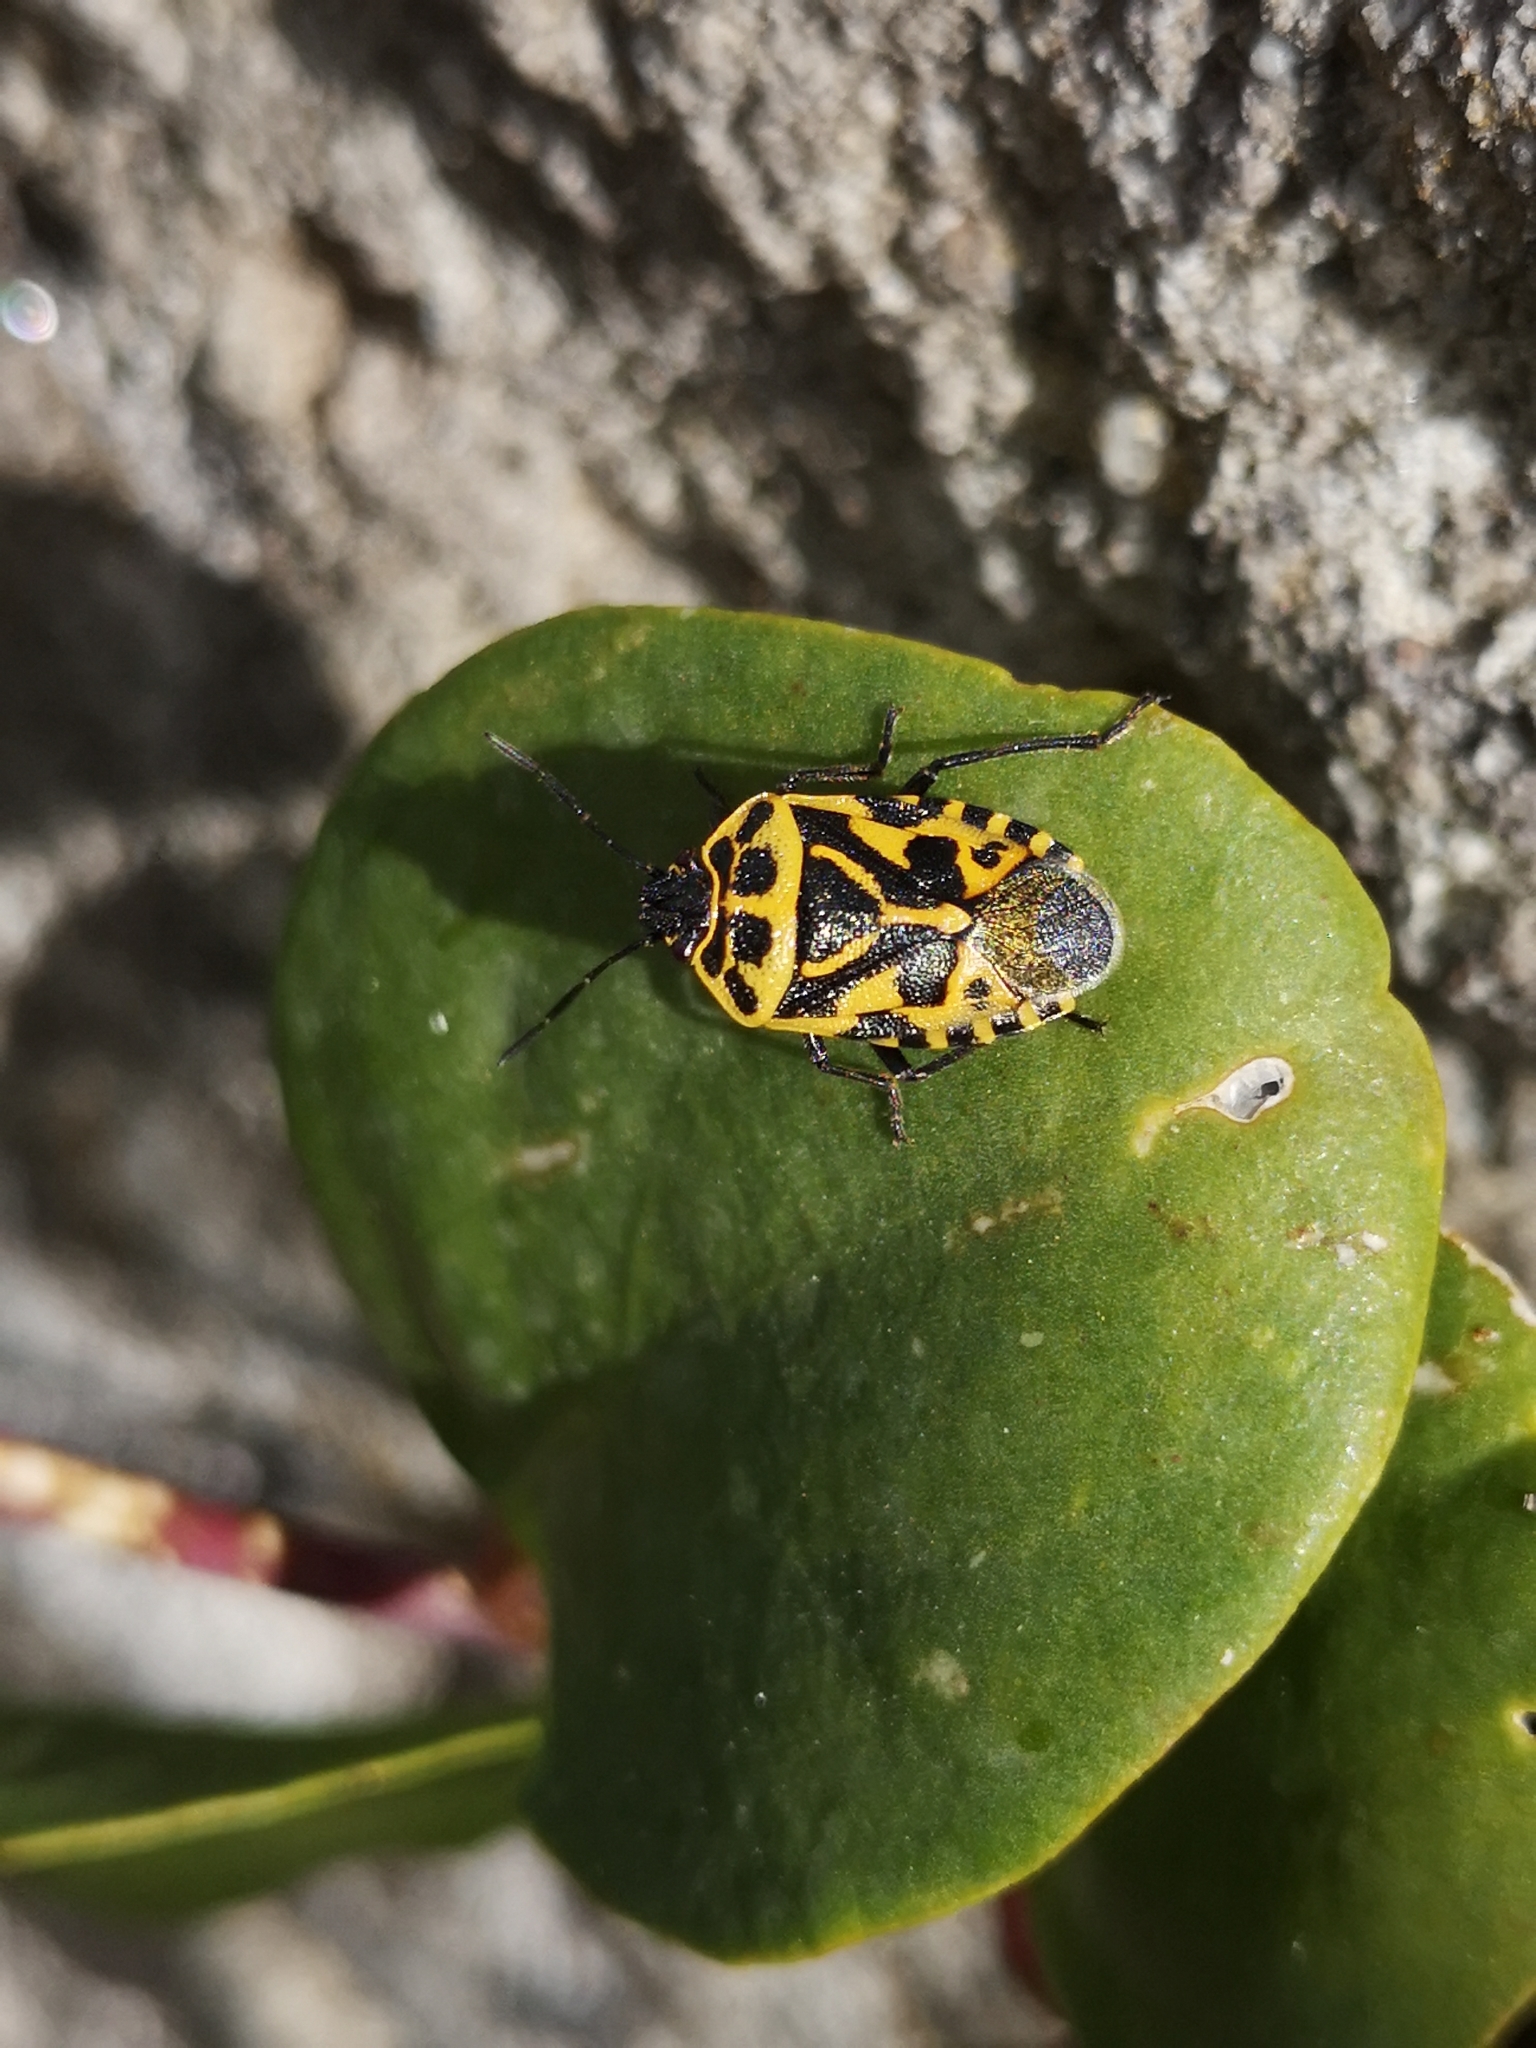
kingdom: Animalia
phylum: Arthropoda
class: Insecta
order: Hemiptera
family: Pentatomidae
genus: Eurydema
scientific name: Eurydema ventralis
